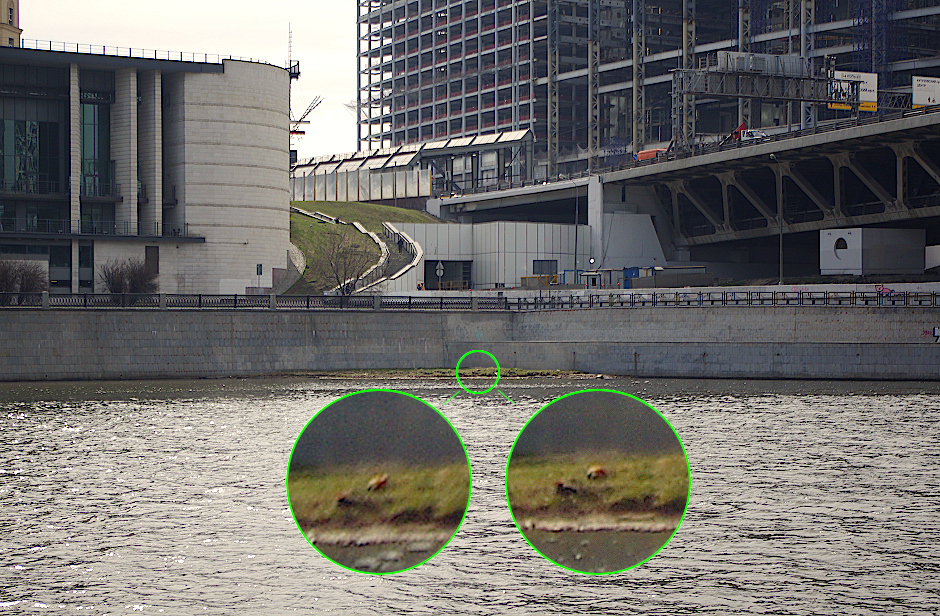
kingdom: Animalia
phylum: Chordata
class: Aves
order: Anseriformes
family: Anatidae
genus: Tadorna
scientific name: Tadorna ferruginea
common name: Ruddy shelduck
